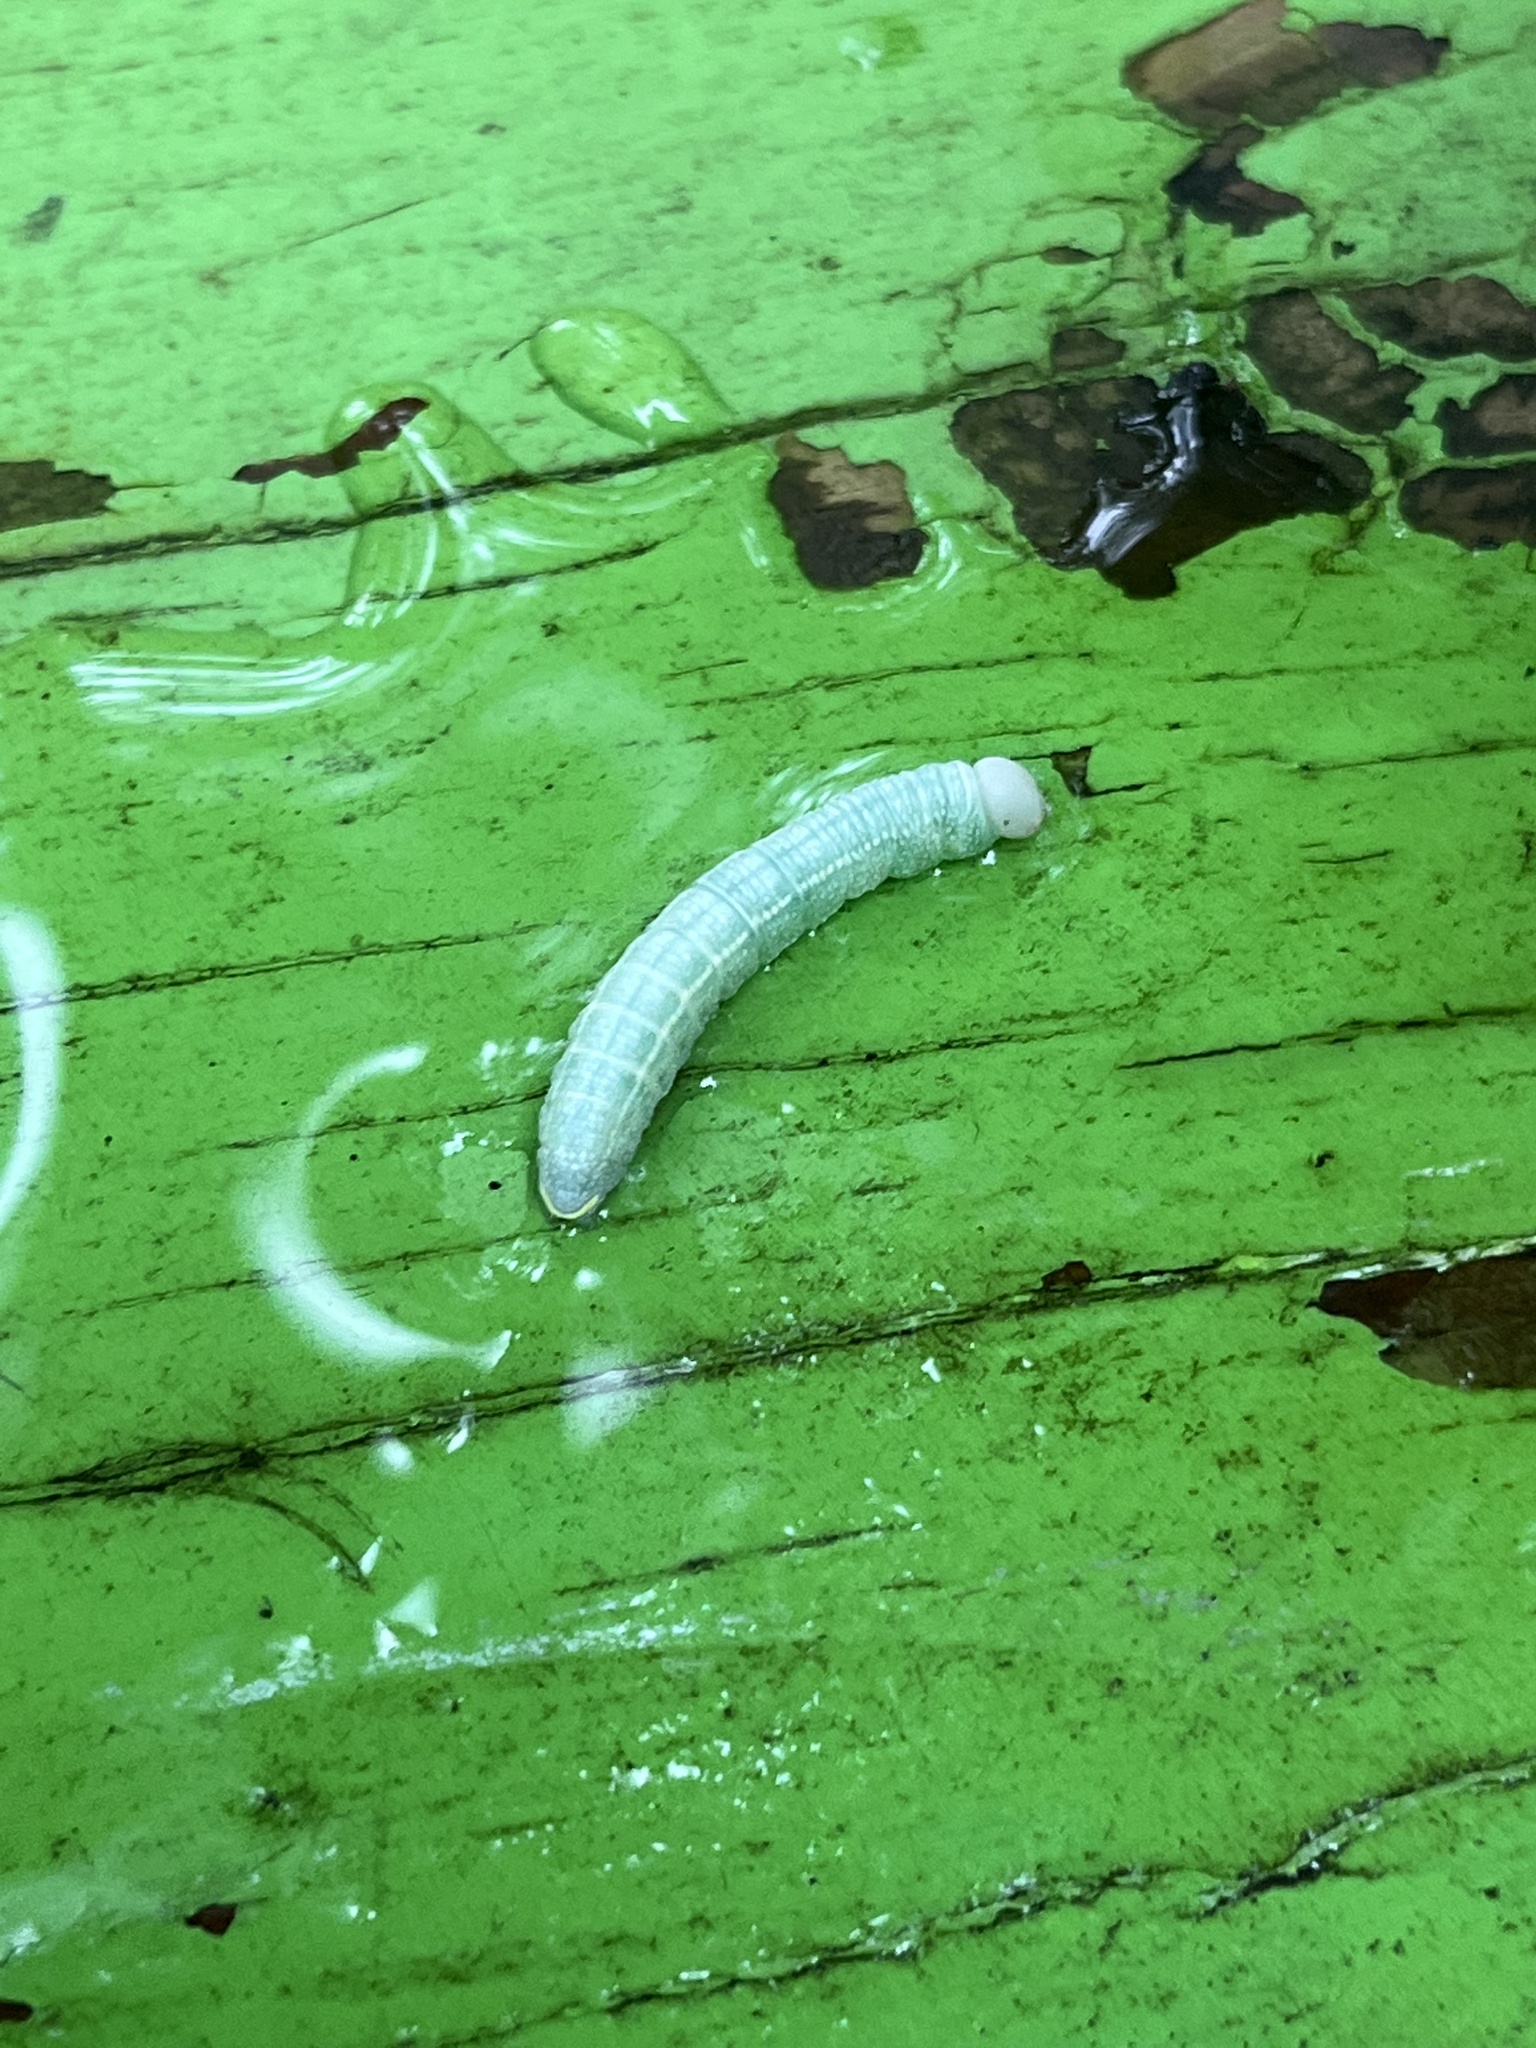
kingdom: Animalia
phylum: Arthropoda
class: Insecta
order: Lepidoptera
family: Notodontidae
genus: Nadata
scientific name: Nadata gibbosa
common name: White-dotted prominent
